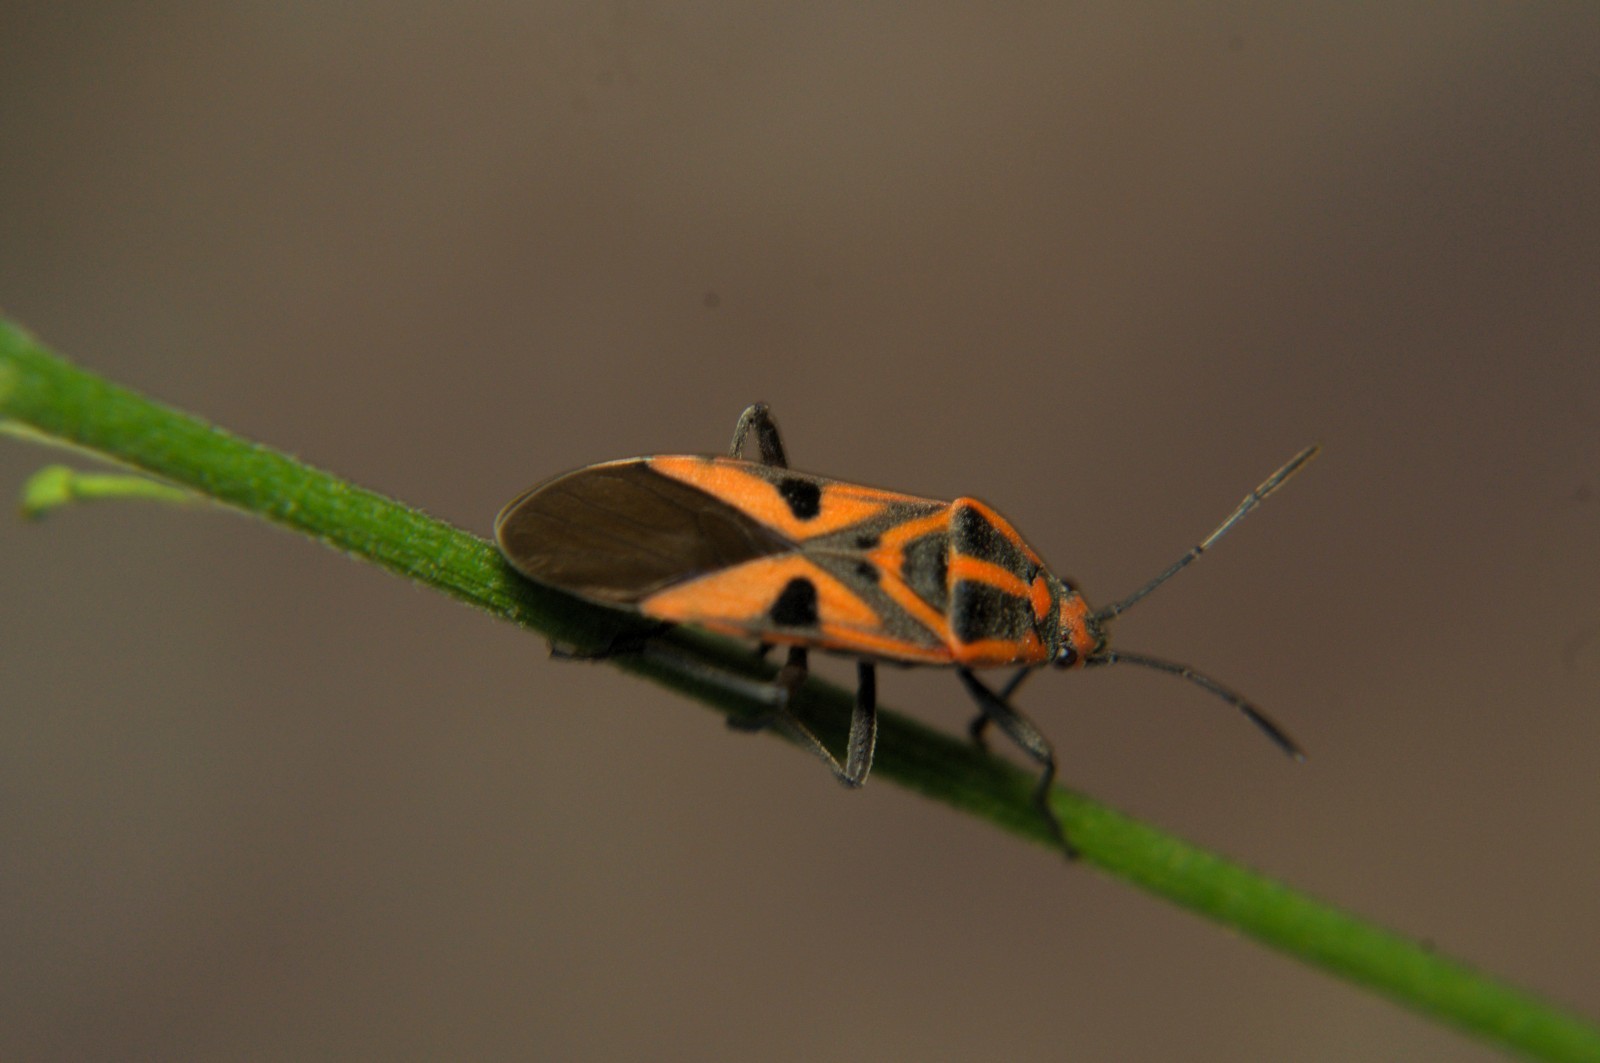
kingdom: Animalia
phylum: Arthropoda
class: Insecta
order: Hemiptera
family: Lygaeidae
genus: Spilostethus
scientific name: Spilostethus hospes
